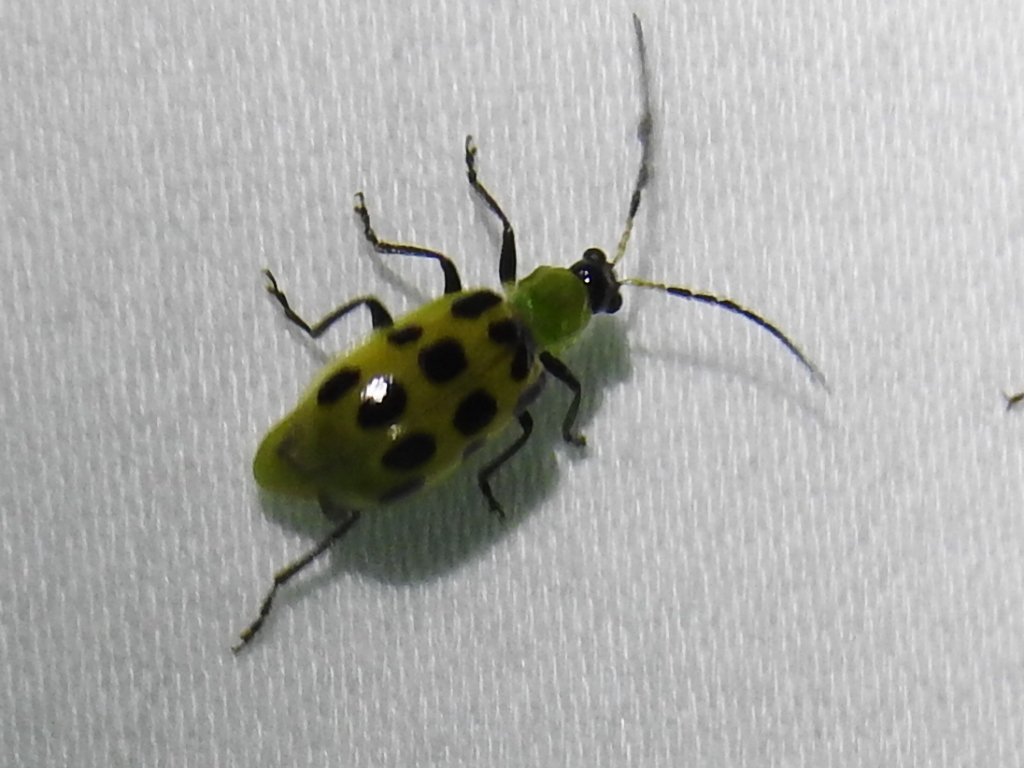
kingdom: Animalia
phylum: Arthropoda
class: Insecta
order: Coleoptera
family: Chrysomelidae
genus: Diabrotica
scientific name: Diabrotica undecimpunctata
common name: Spotted cucumber beetle
